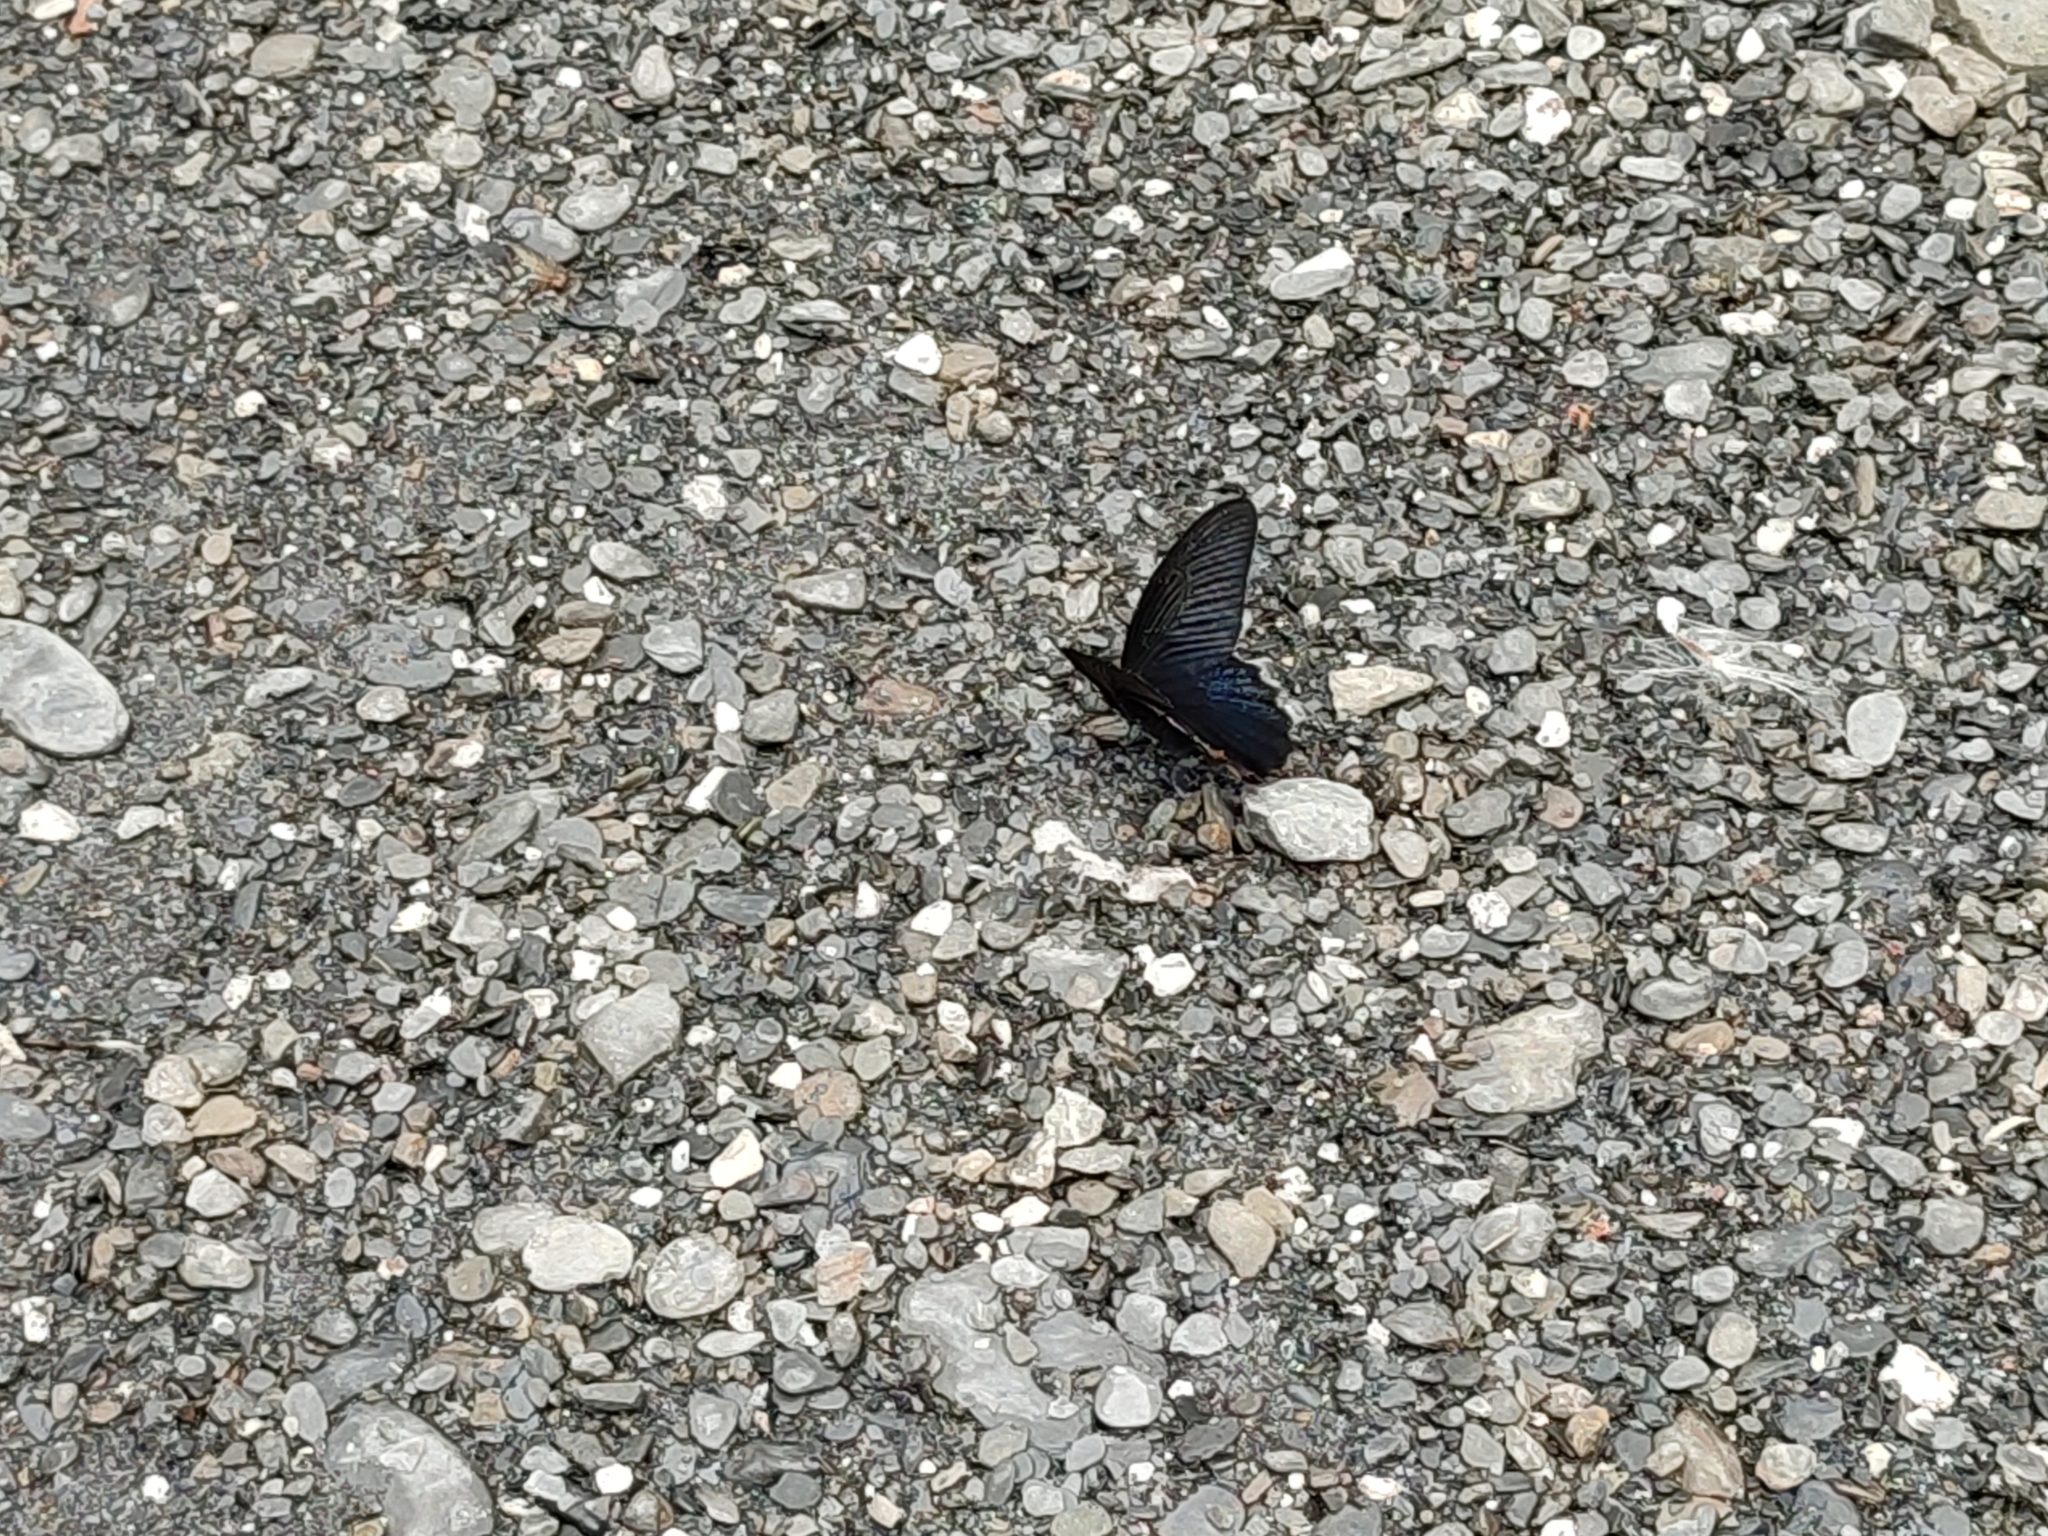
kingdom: Animalia
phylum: Arthropoda
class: Insecta
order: Lepidoptera
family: Papilionidae
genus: Papilio
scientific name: Papilio protenor
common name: Spangle
